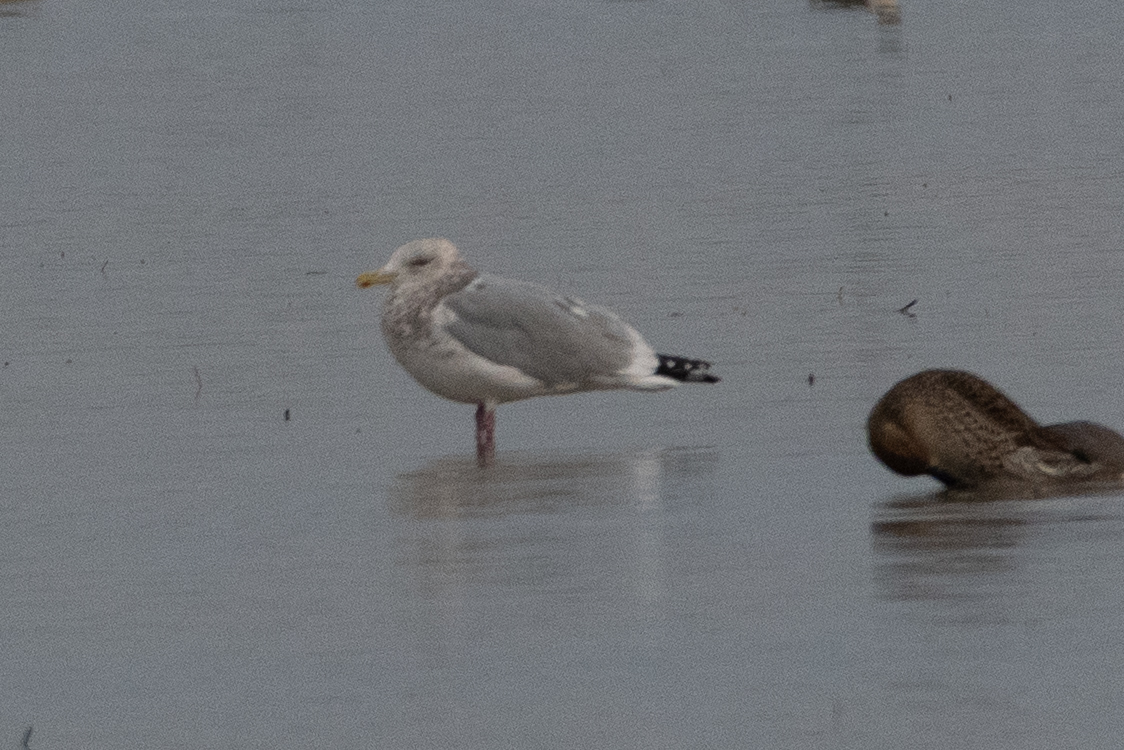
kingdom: Animalia
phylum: Chordata
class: Aves
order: Charadriiformes
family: Laridae
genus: Larus
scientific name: Larus argentatus
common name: Herring gull
